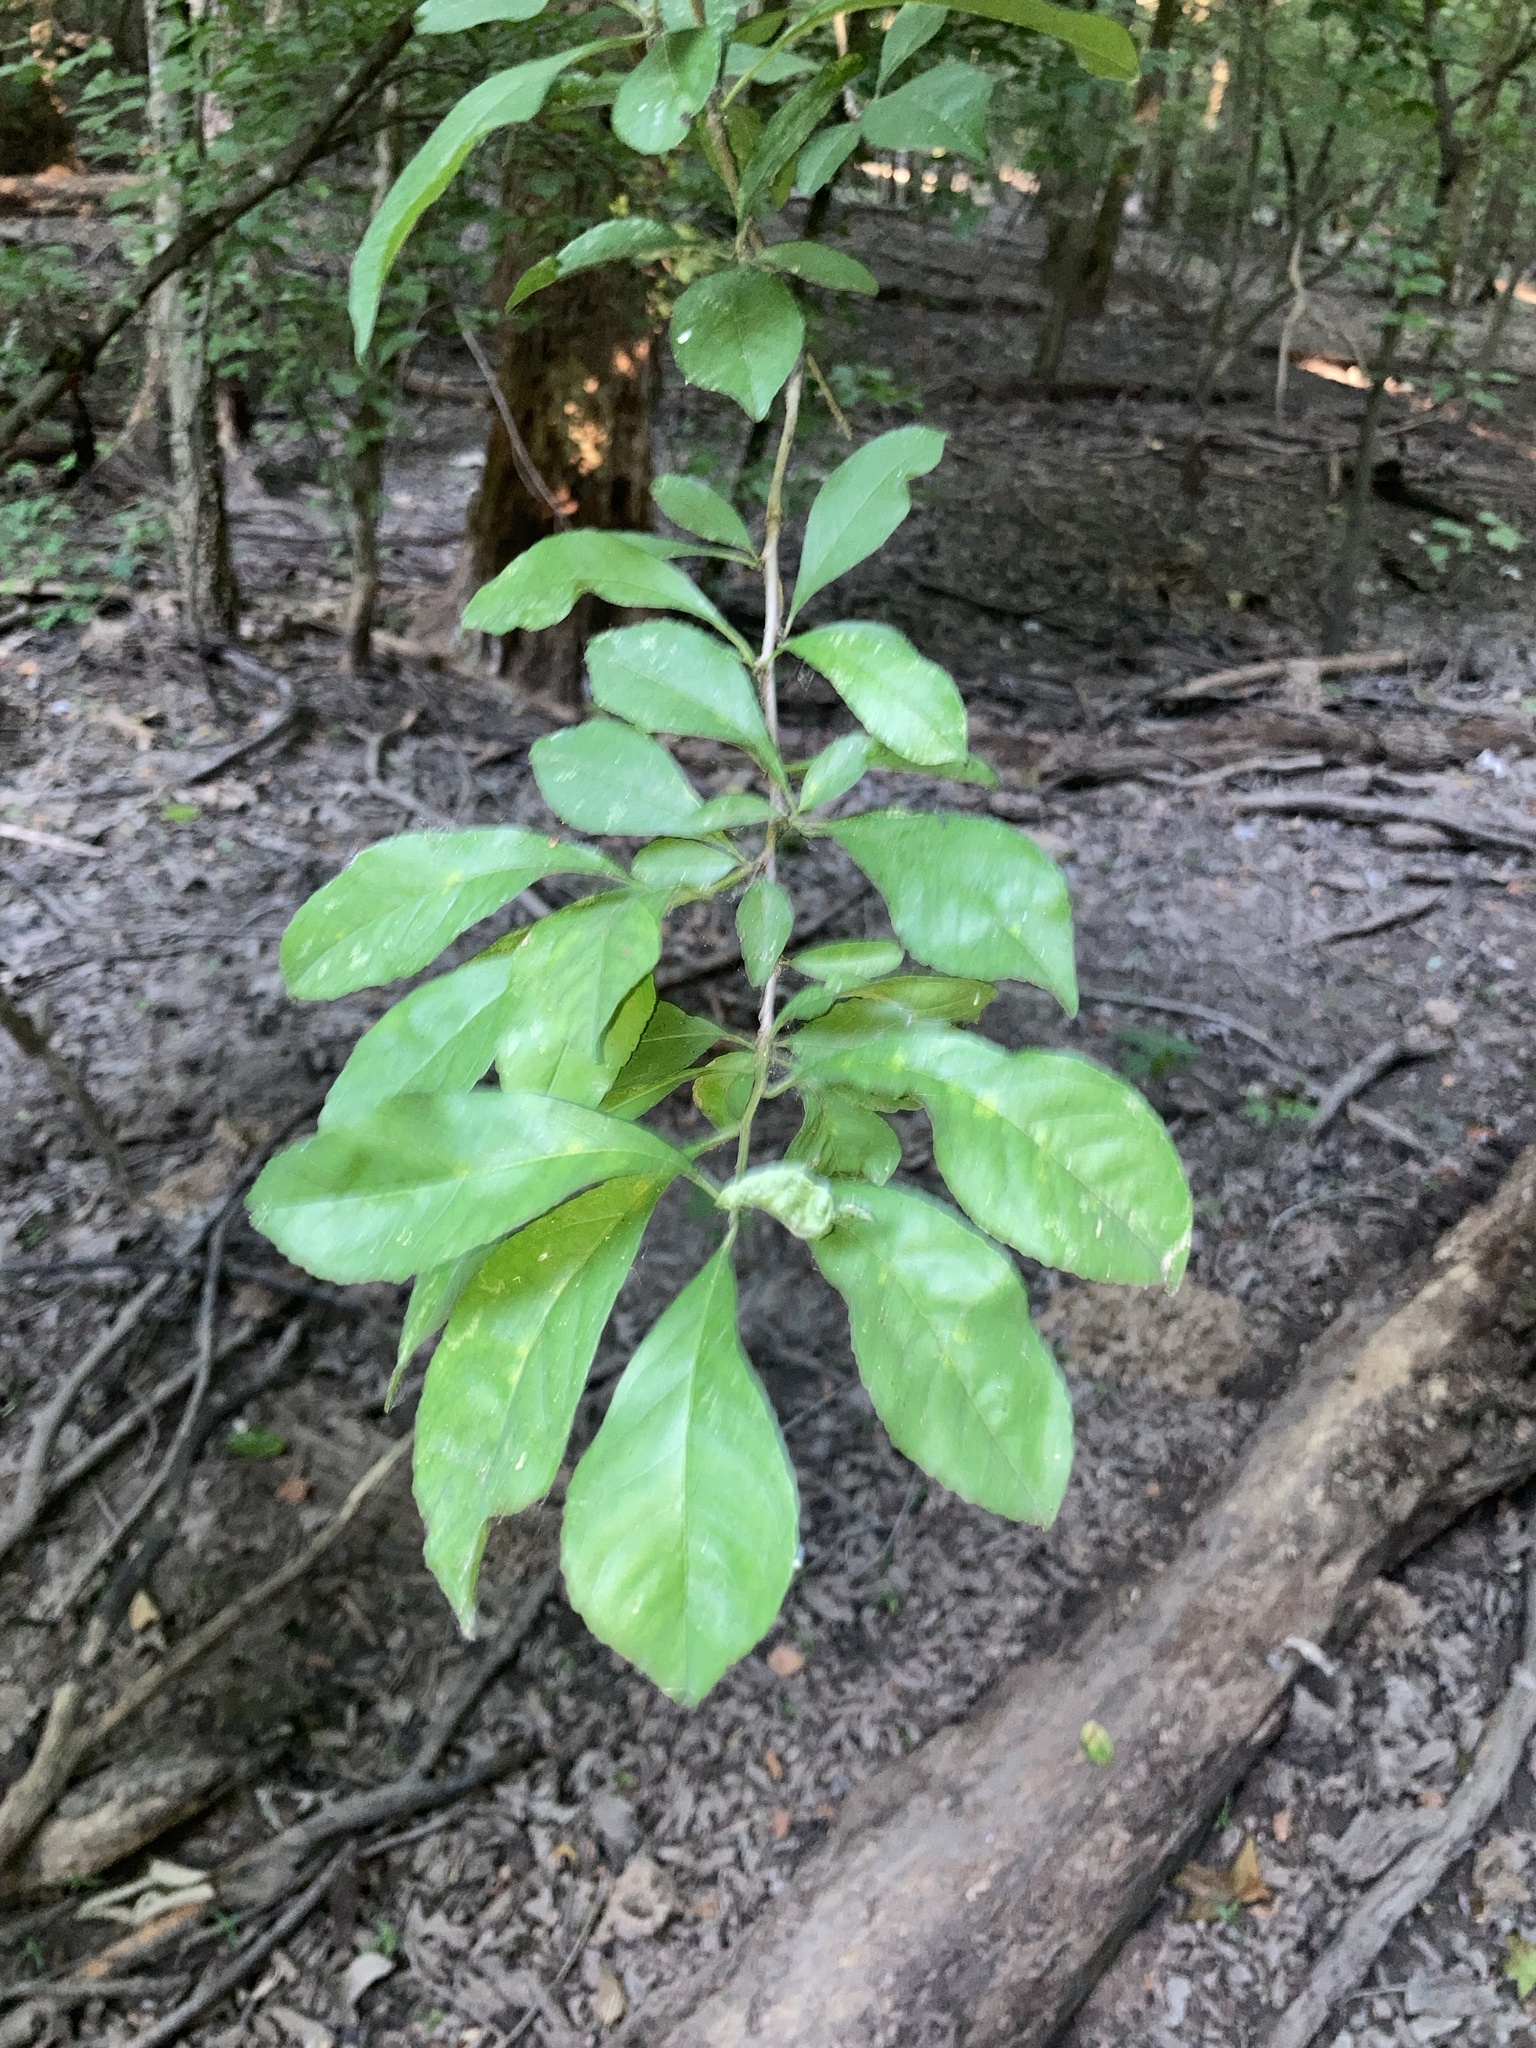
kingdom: Plantae
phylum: Tracheophyta
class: Magnoliopsida
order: Aquifoliales
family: Aquifoliaceae
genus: Ilex
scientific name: Ilex decidua
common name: Possum-haw
